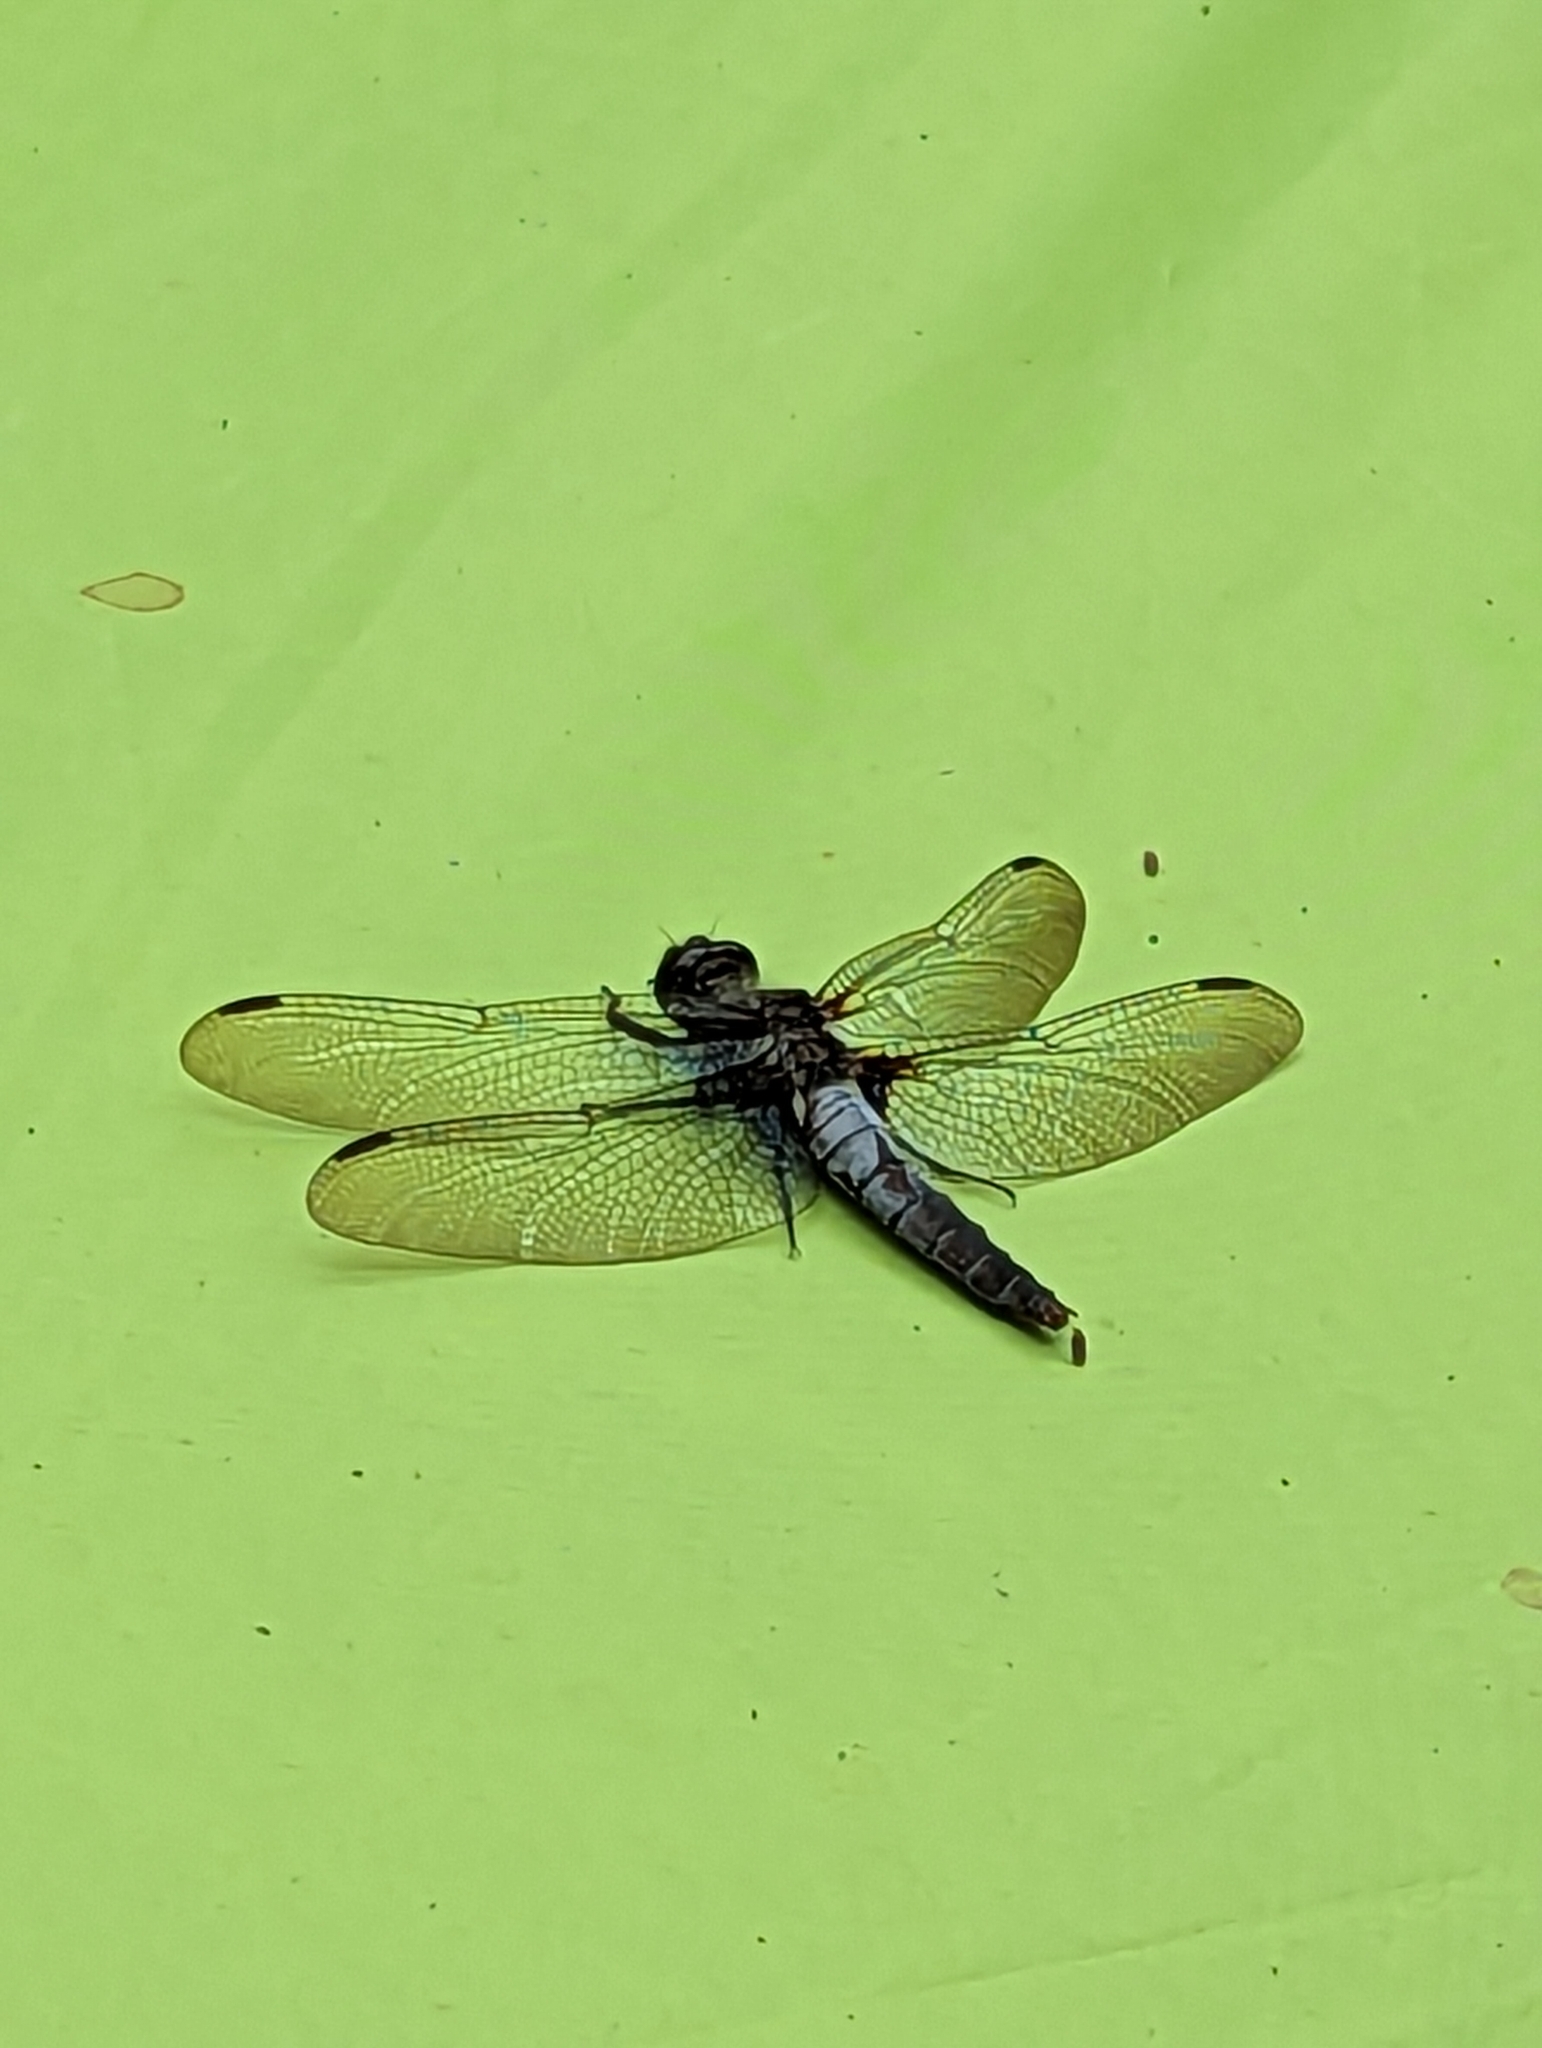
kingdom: Animalia
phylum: Arthropoda
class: Insecta
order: Odonata
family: Libellulidae
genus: Ladona
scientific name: Ladona julia
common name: Chalk-fronted corporal
